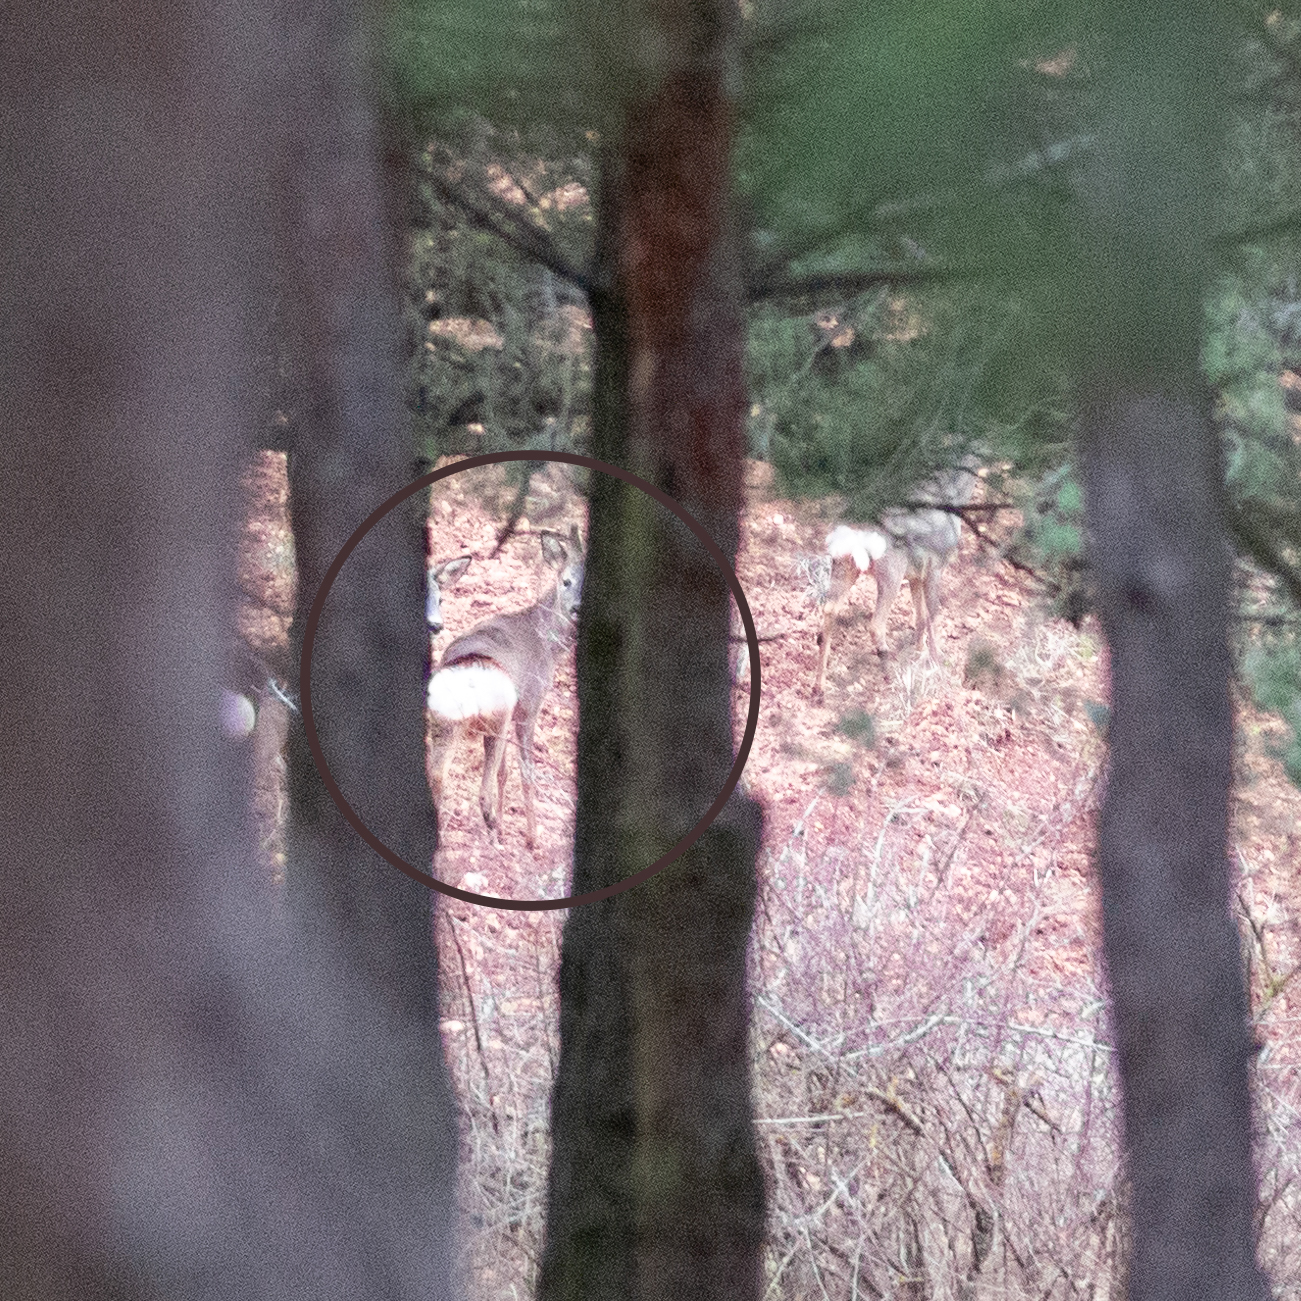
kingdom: Animalia
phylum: Chordata
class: Mammalia
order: Artiodactyla
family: Cervidae
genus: Capreolus
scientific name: Capreolus capreolus
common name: Western roe deer
